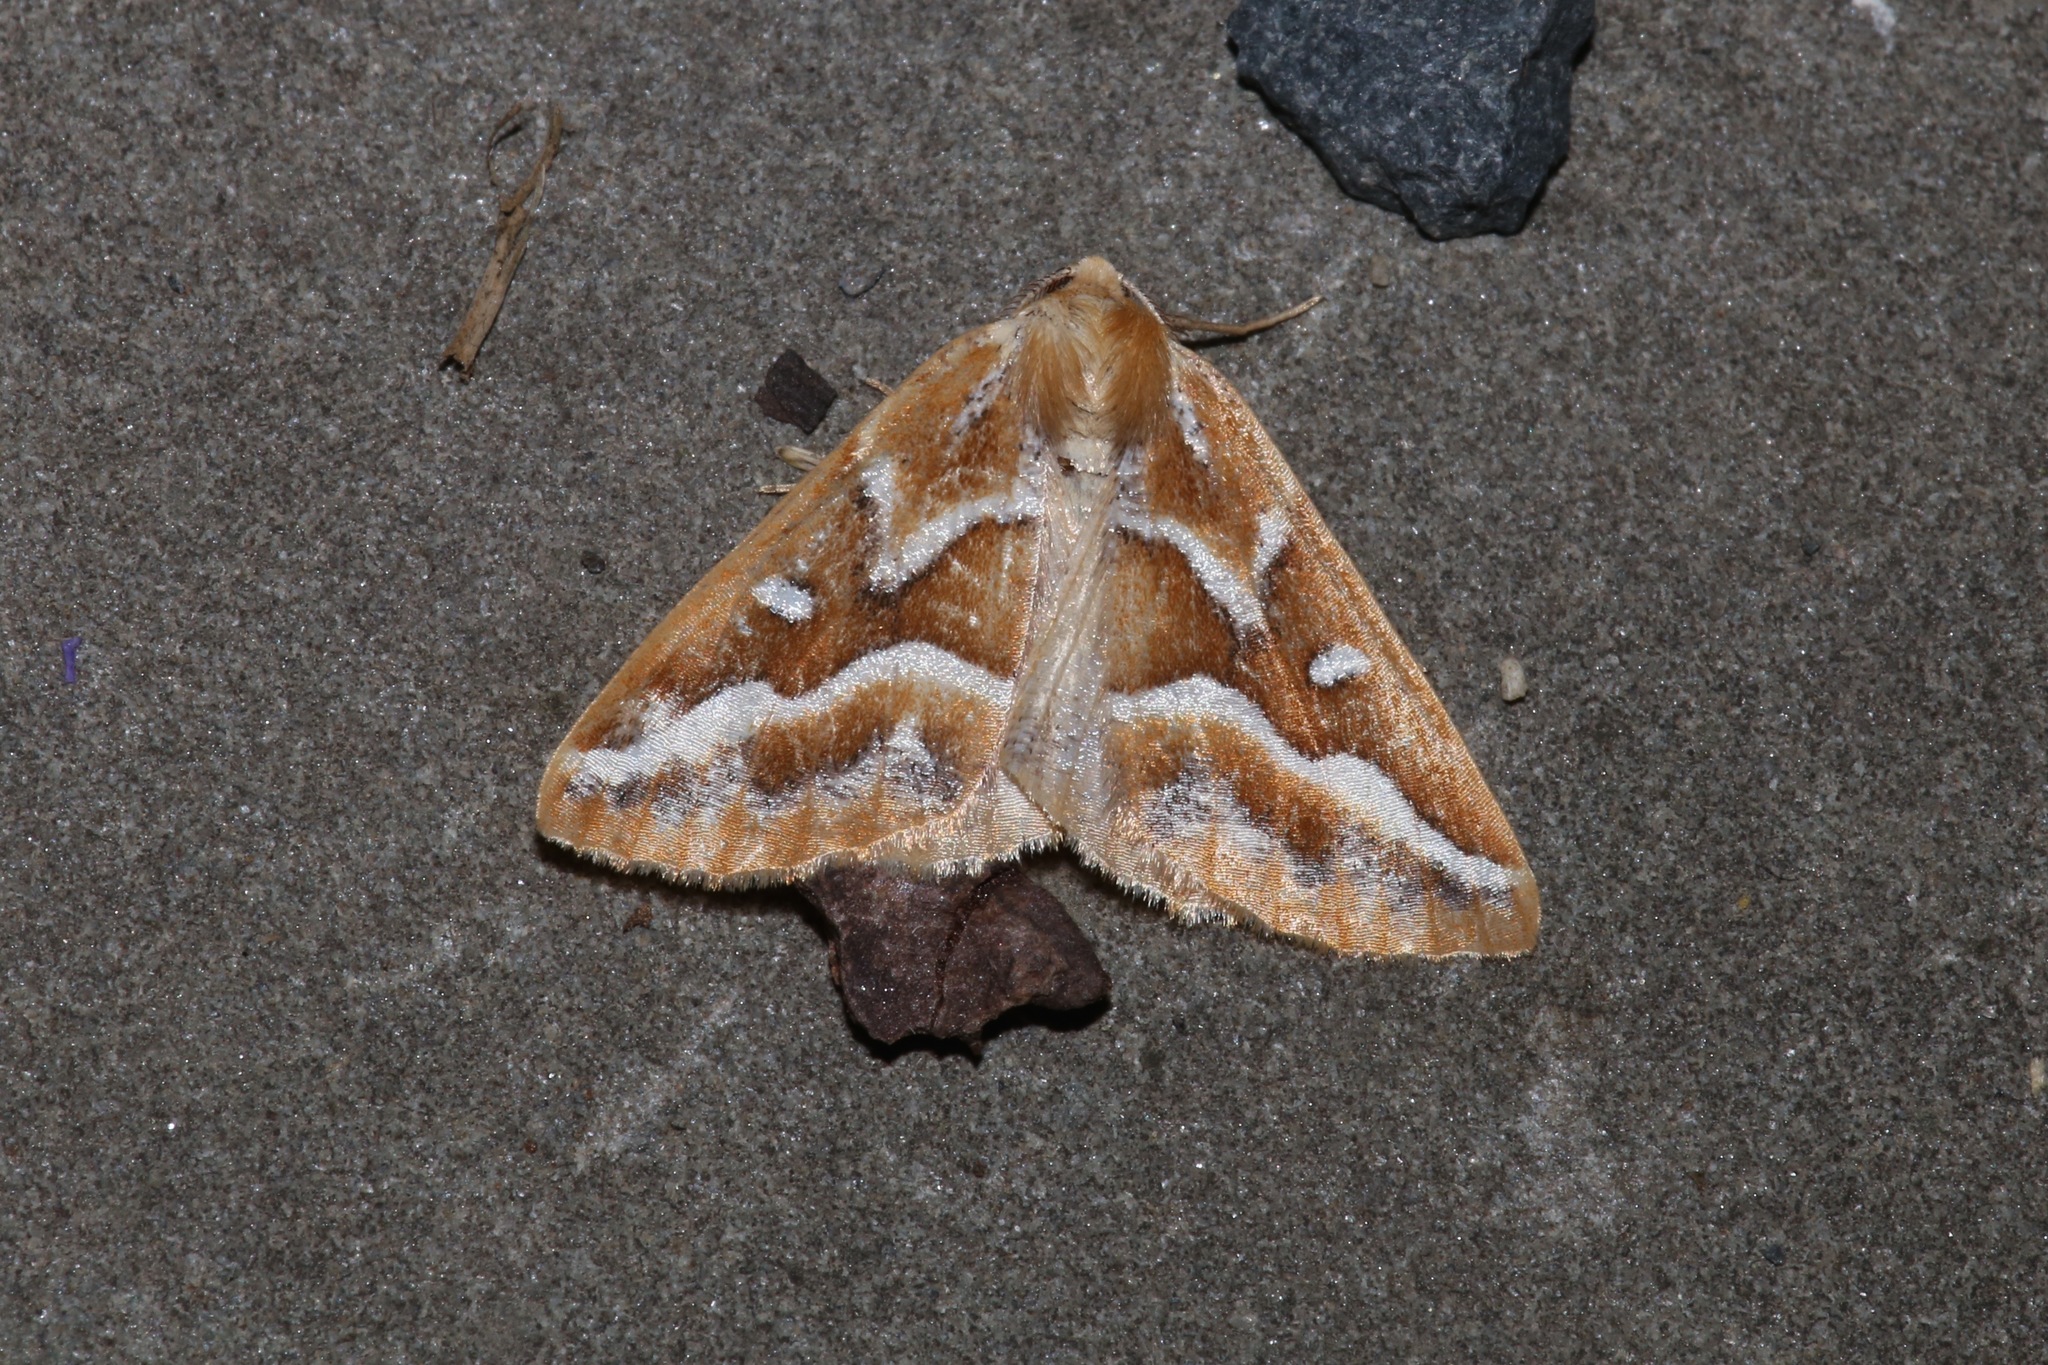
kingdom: Animalia
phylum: Arthropoda
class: Insecta
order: Lepidoptera
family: Geometridae
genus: Caripeta
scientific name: Caripeta angustiorata
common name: Brown pine looper
